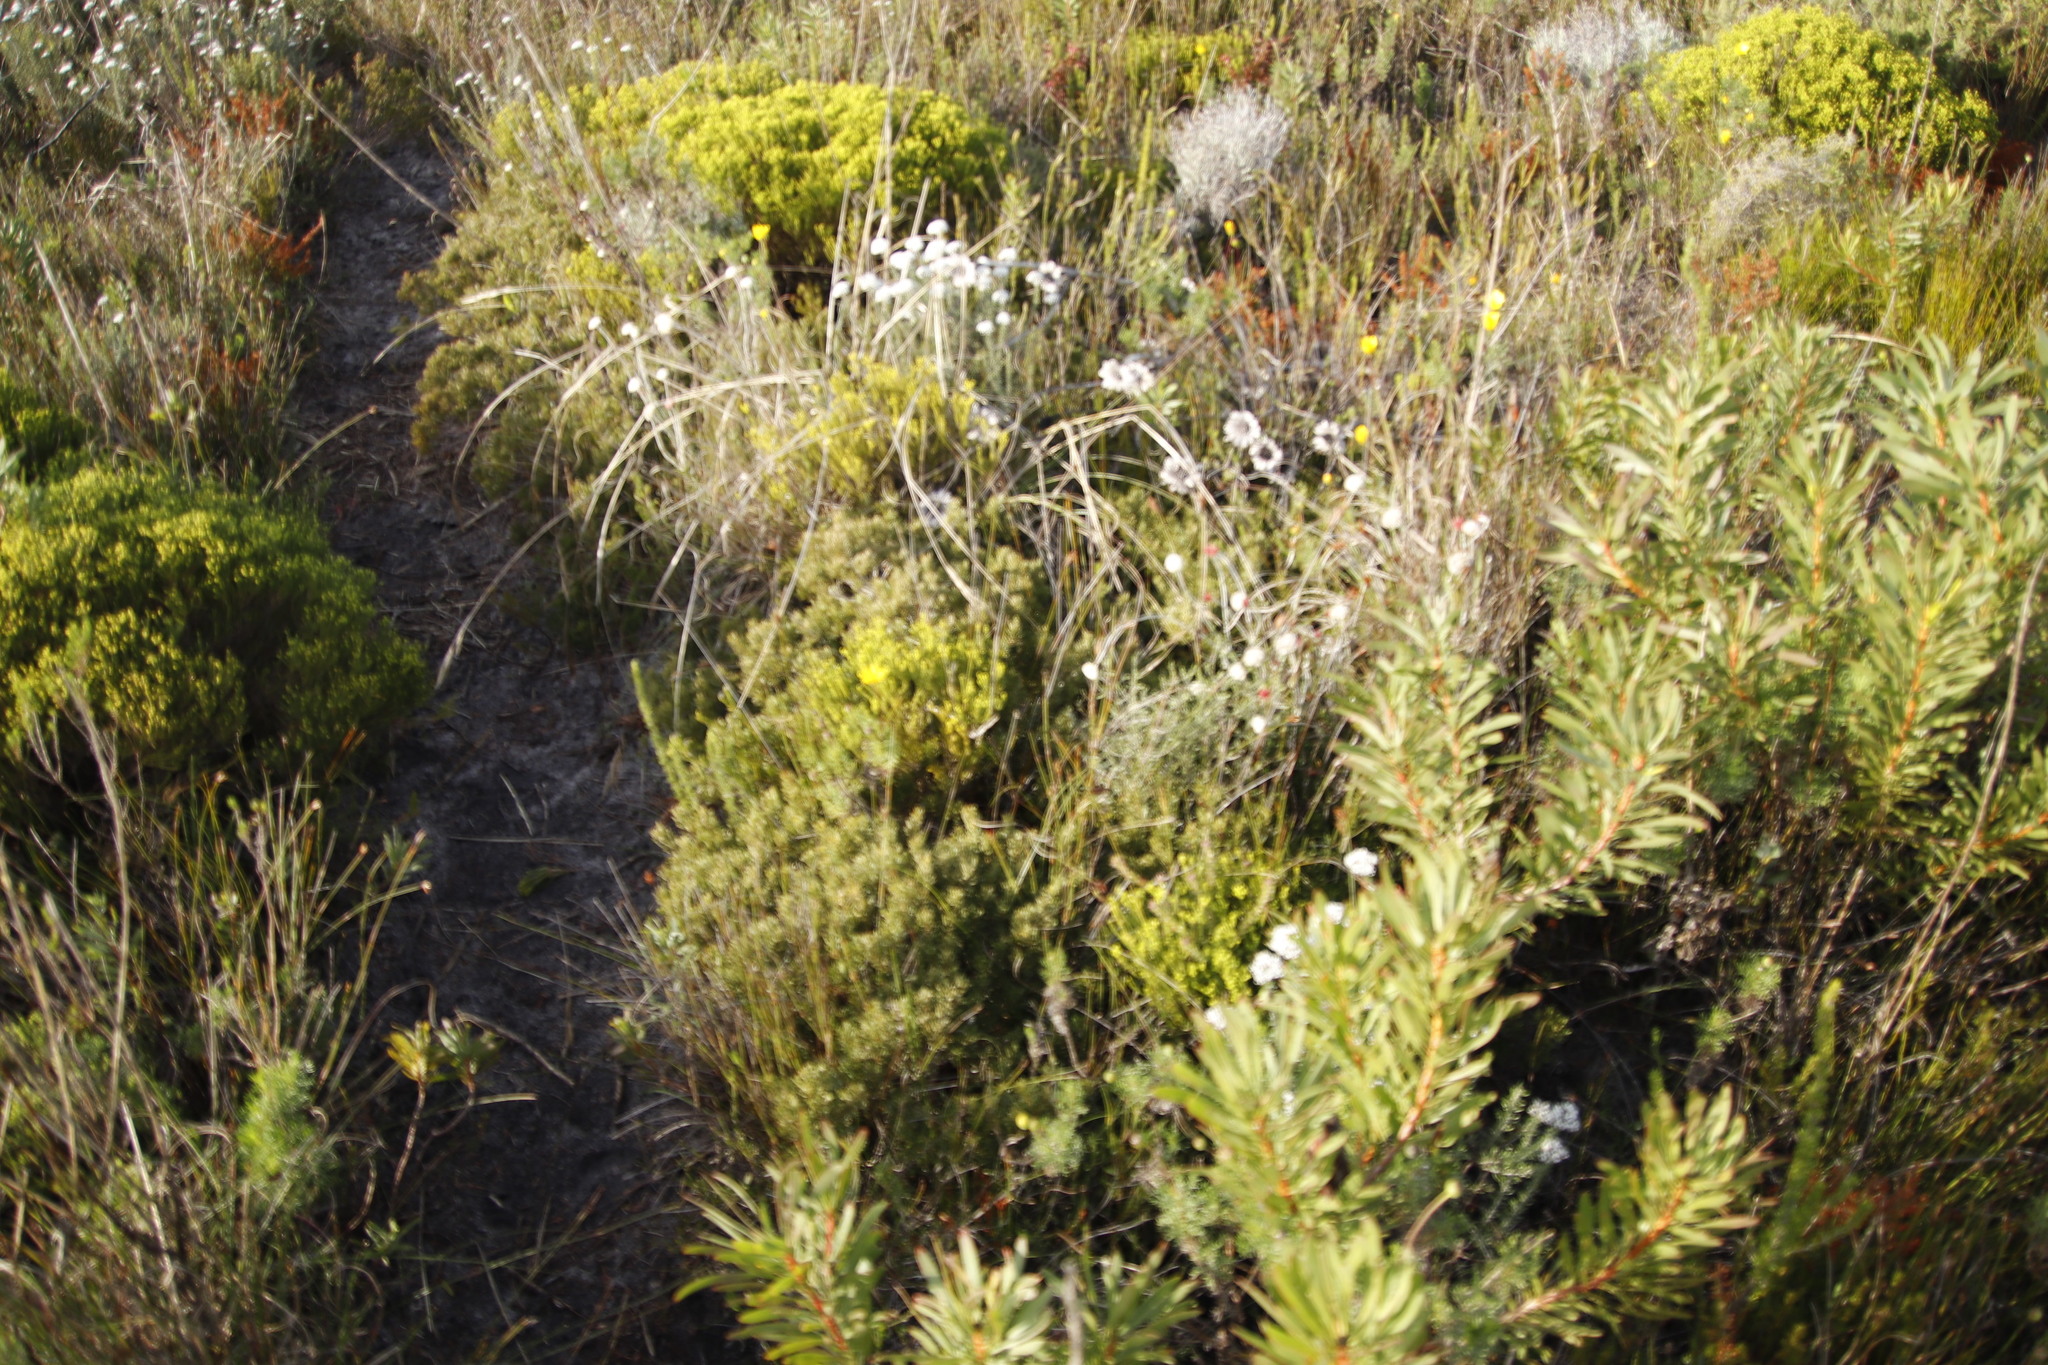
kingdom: Plantae
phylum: Tracheophyta
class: Magnoliopsida
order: Fagales
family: Myricaceae
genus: Morella
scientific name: Morella quercifolia
